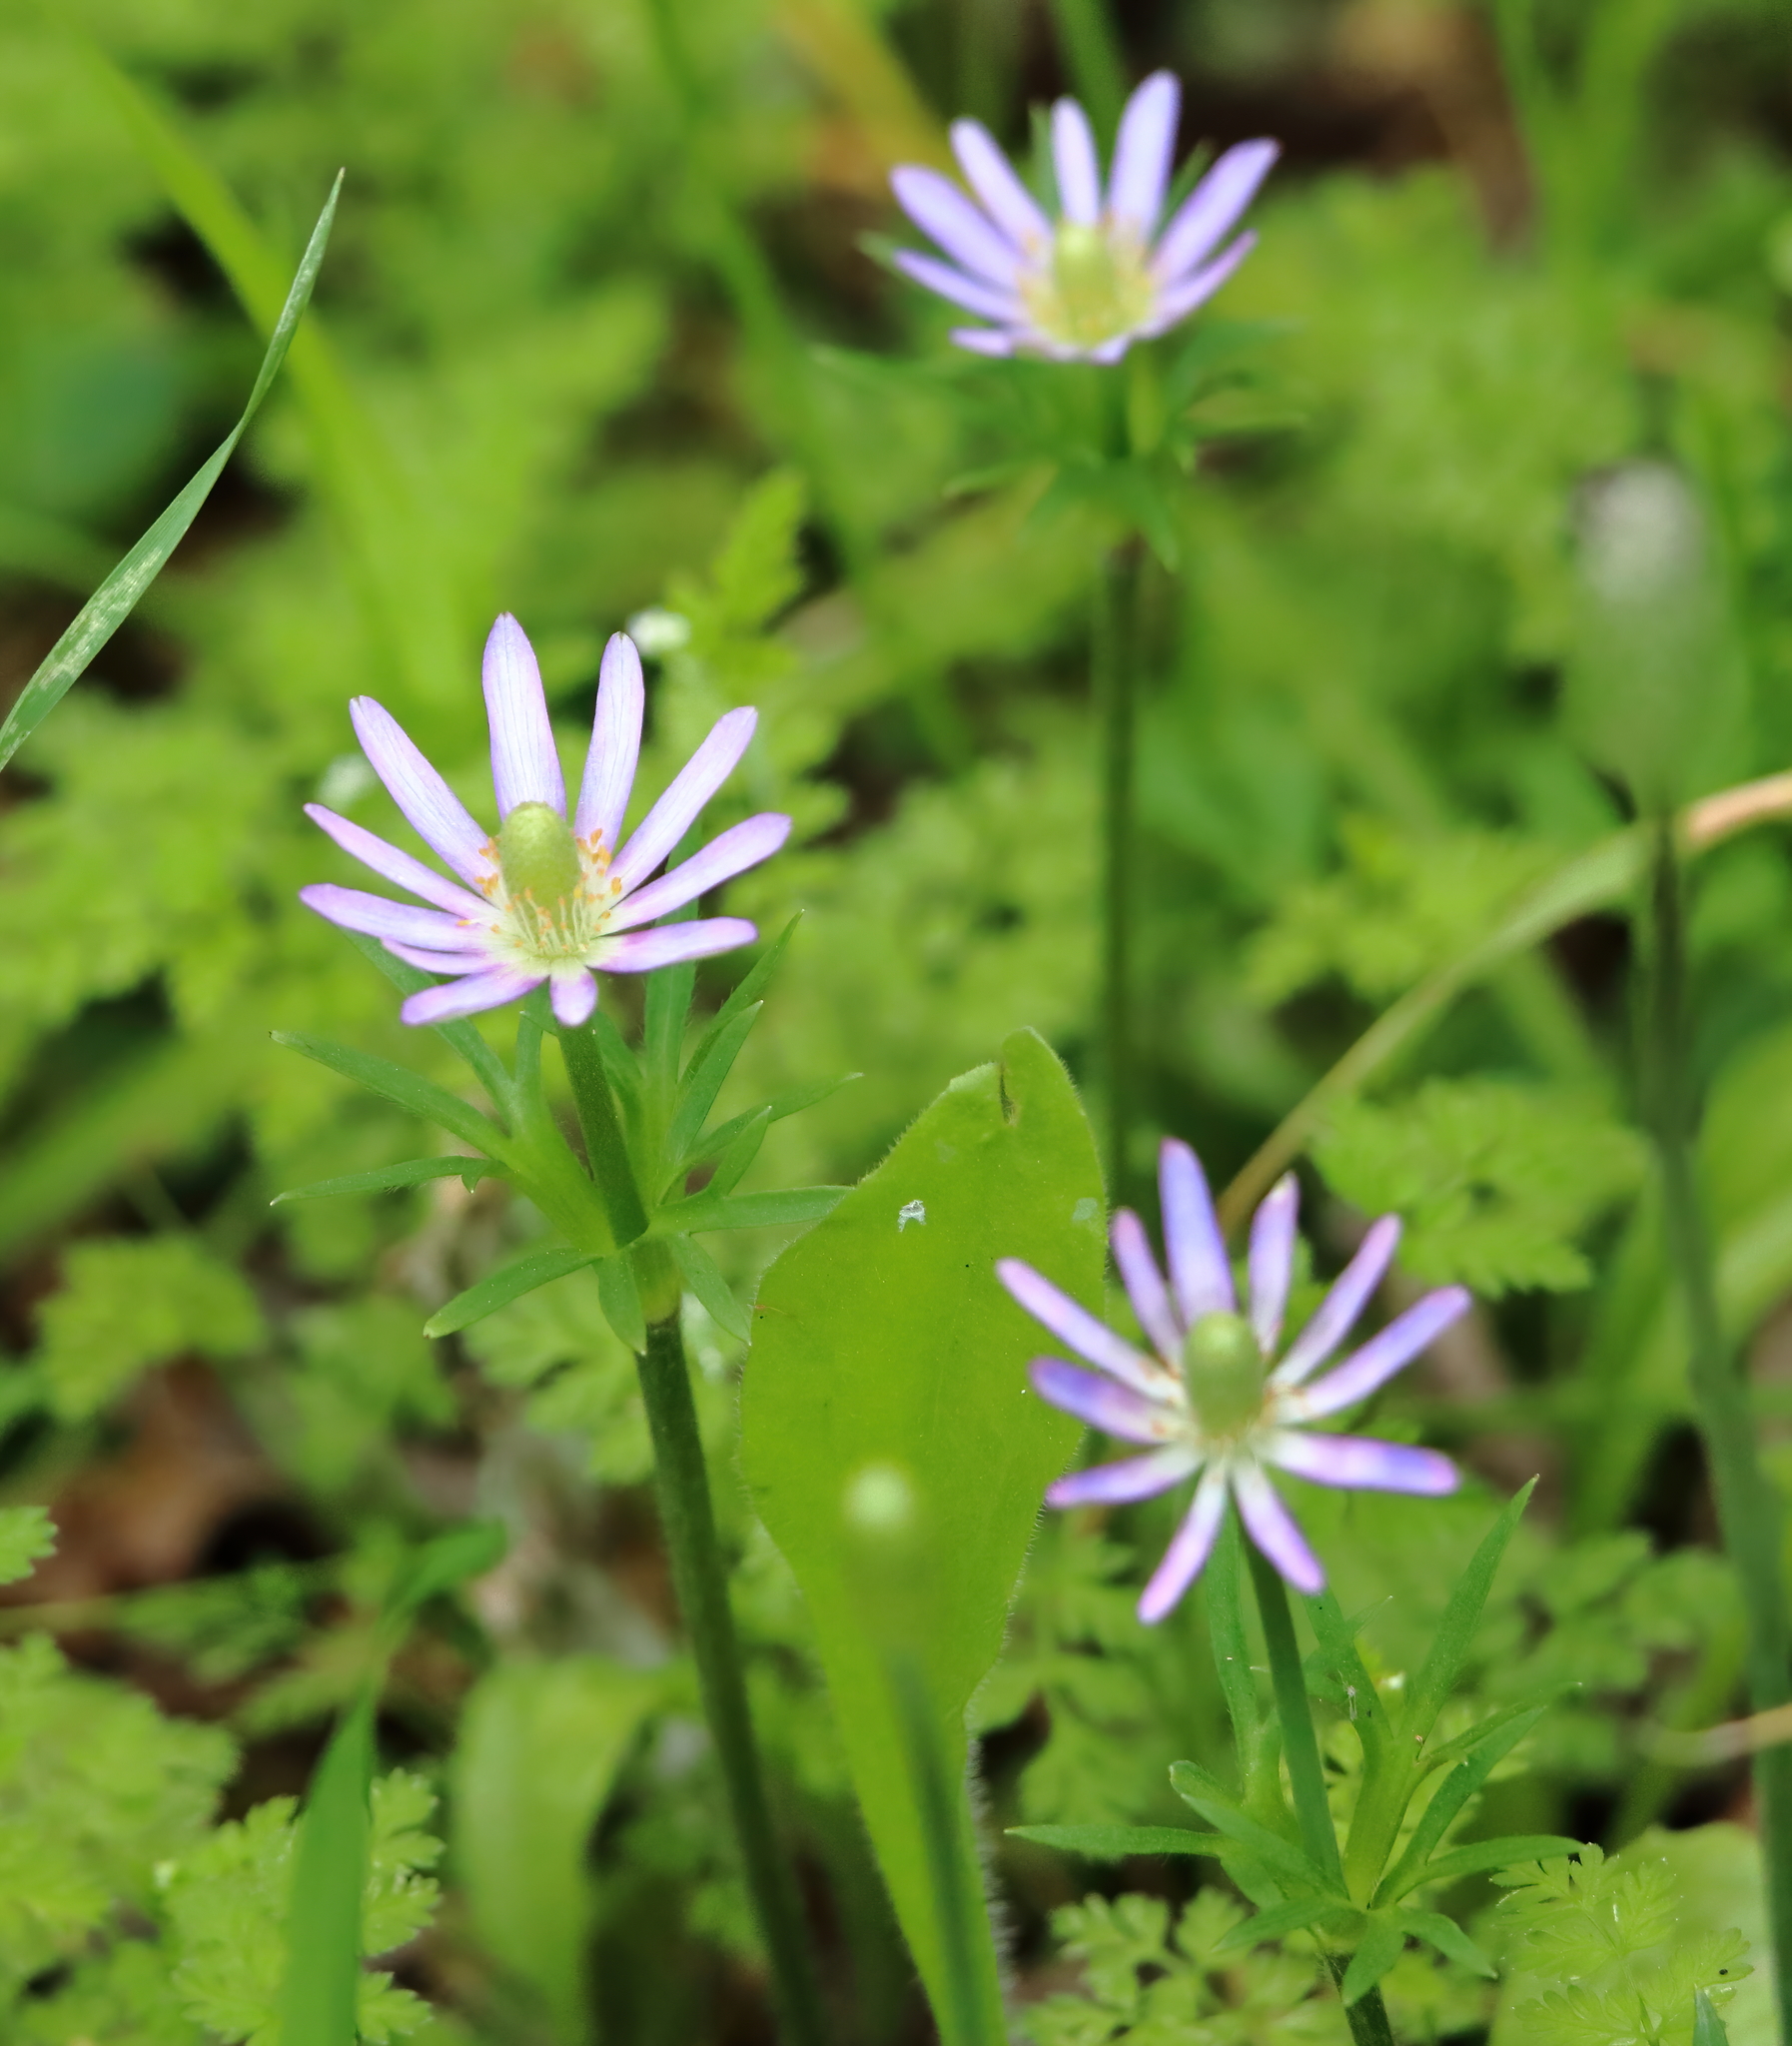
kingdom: Plantae
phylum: Tracheophyta
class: Magnoliopsida
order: Ranunculales
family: Ranunculaceae
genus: Anemone
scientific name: Anemone berlandieri
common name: Ten-petal anemone
